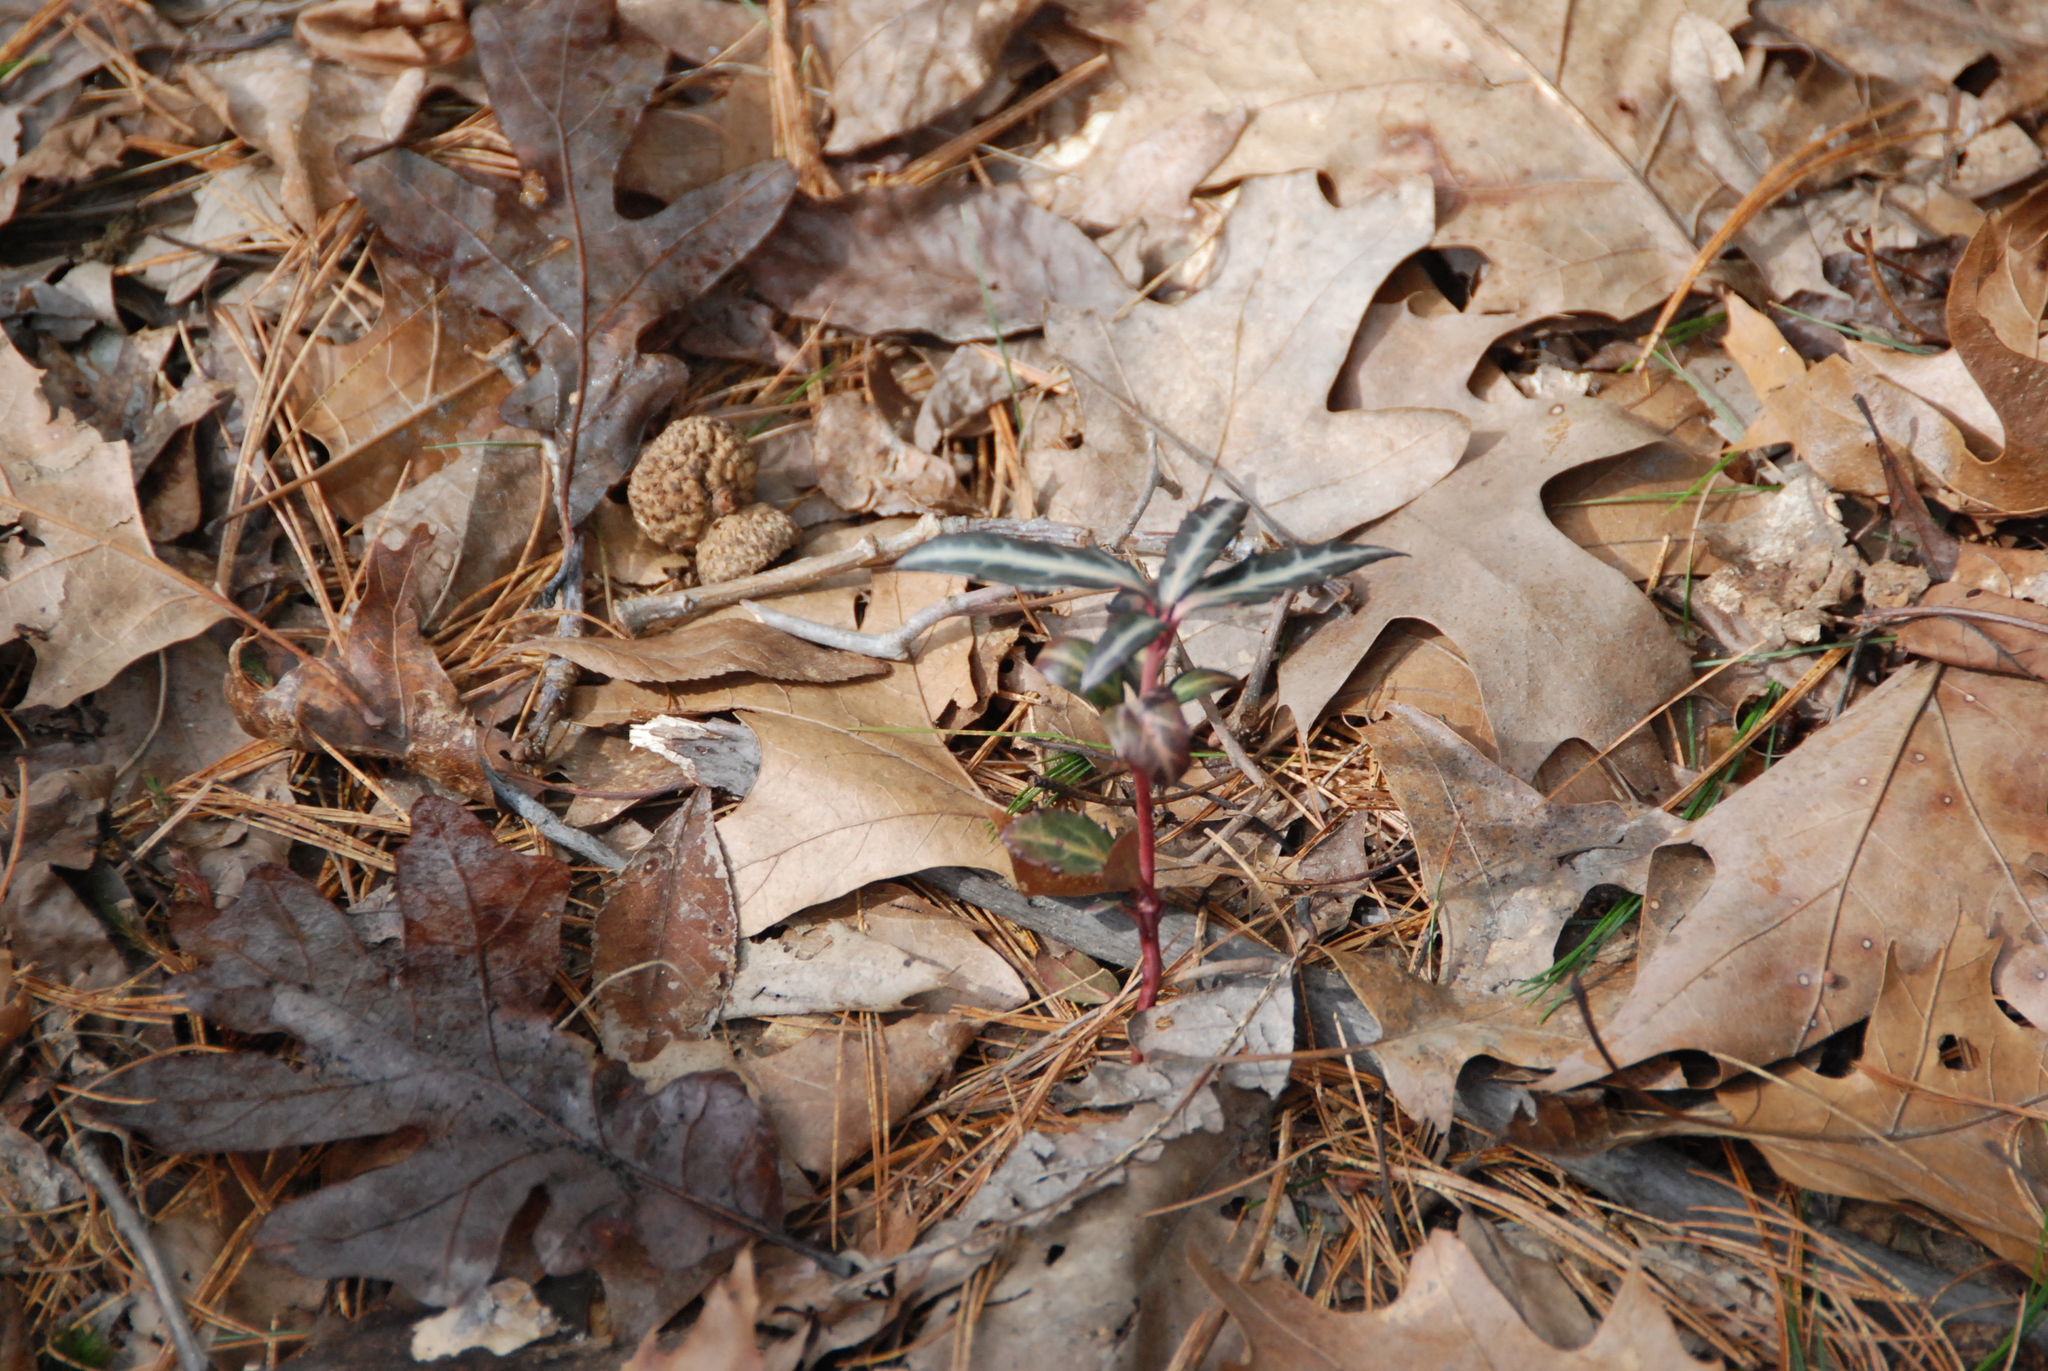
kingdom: Plantae
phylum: Tracheophyta
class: Magnoliopsida
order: Ericales
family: Ericaceae
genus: Chimaphila
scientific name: Chimaphila maculata
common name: Spotted pipsissewa
